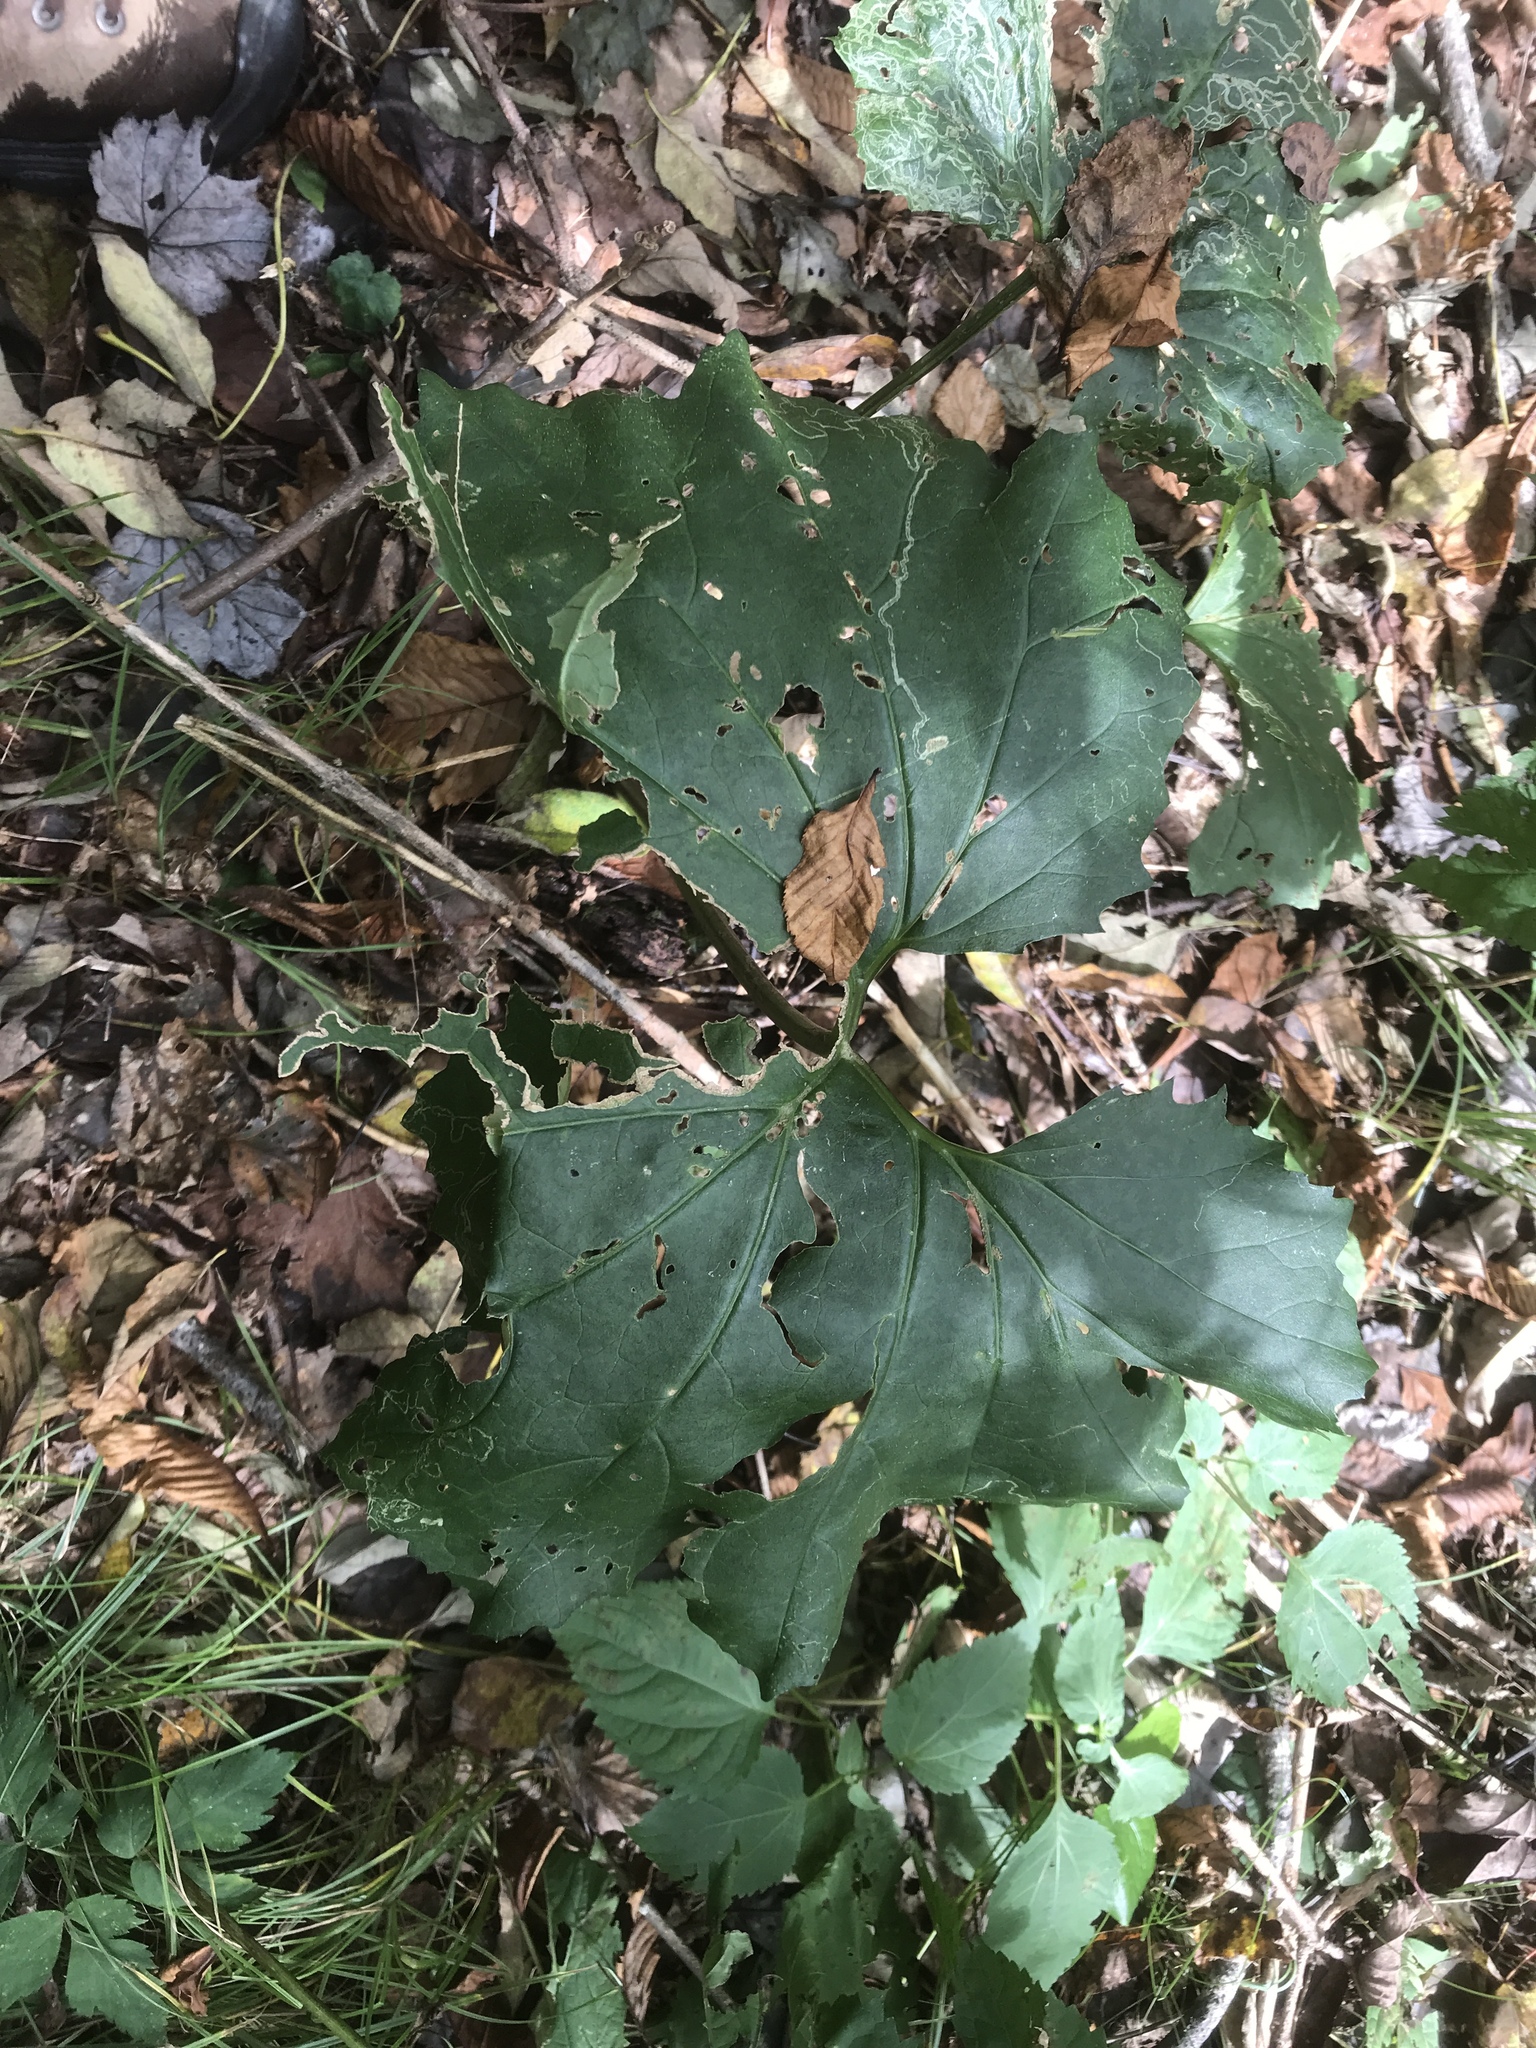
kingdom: Plantae
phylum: Tracheophyta
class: Magnoliopsida
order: Asterales
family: Asteraceae
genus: Arnoglossum
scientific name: Arnoglossum reniforme
